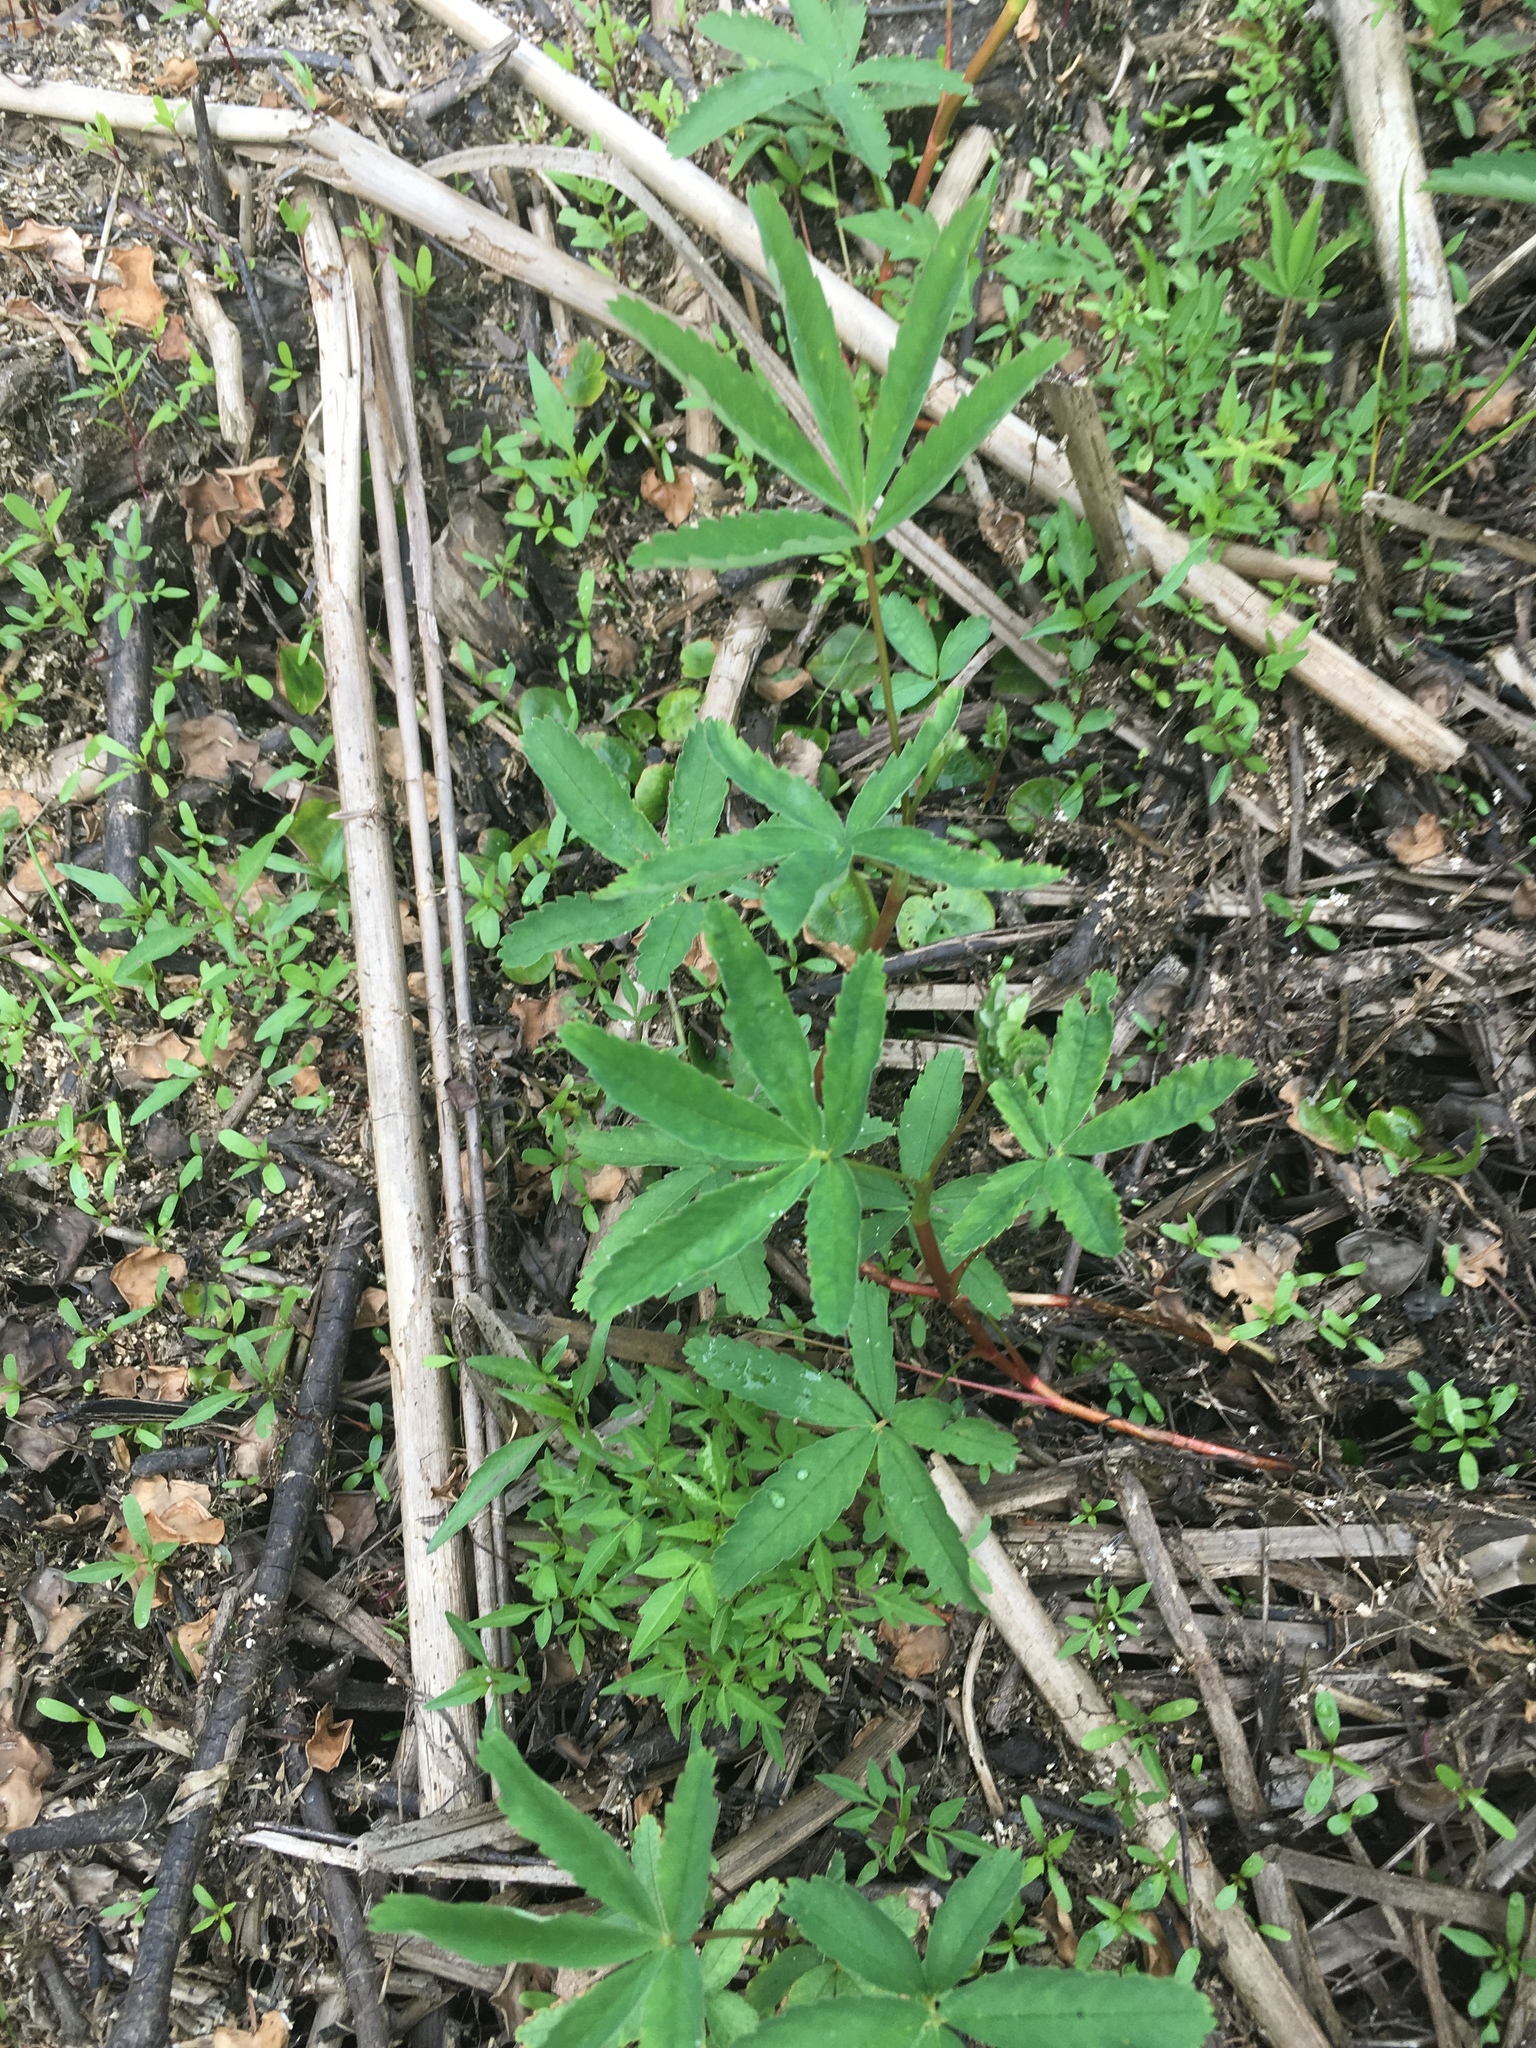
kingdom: Plantae
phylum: Tracheophyta
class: Magnoliopsida
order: Rosales
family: Rosaceae
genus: Comarum
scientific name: Comarum palustre
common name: Marsh cinquefoil
